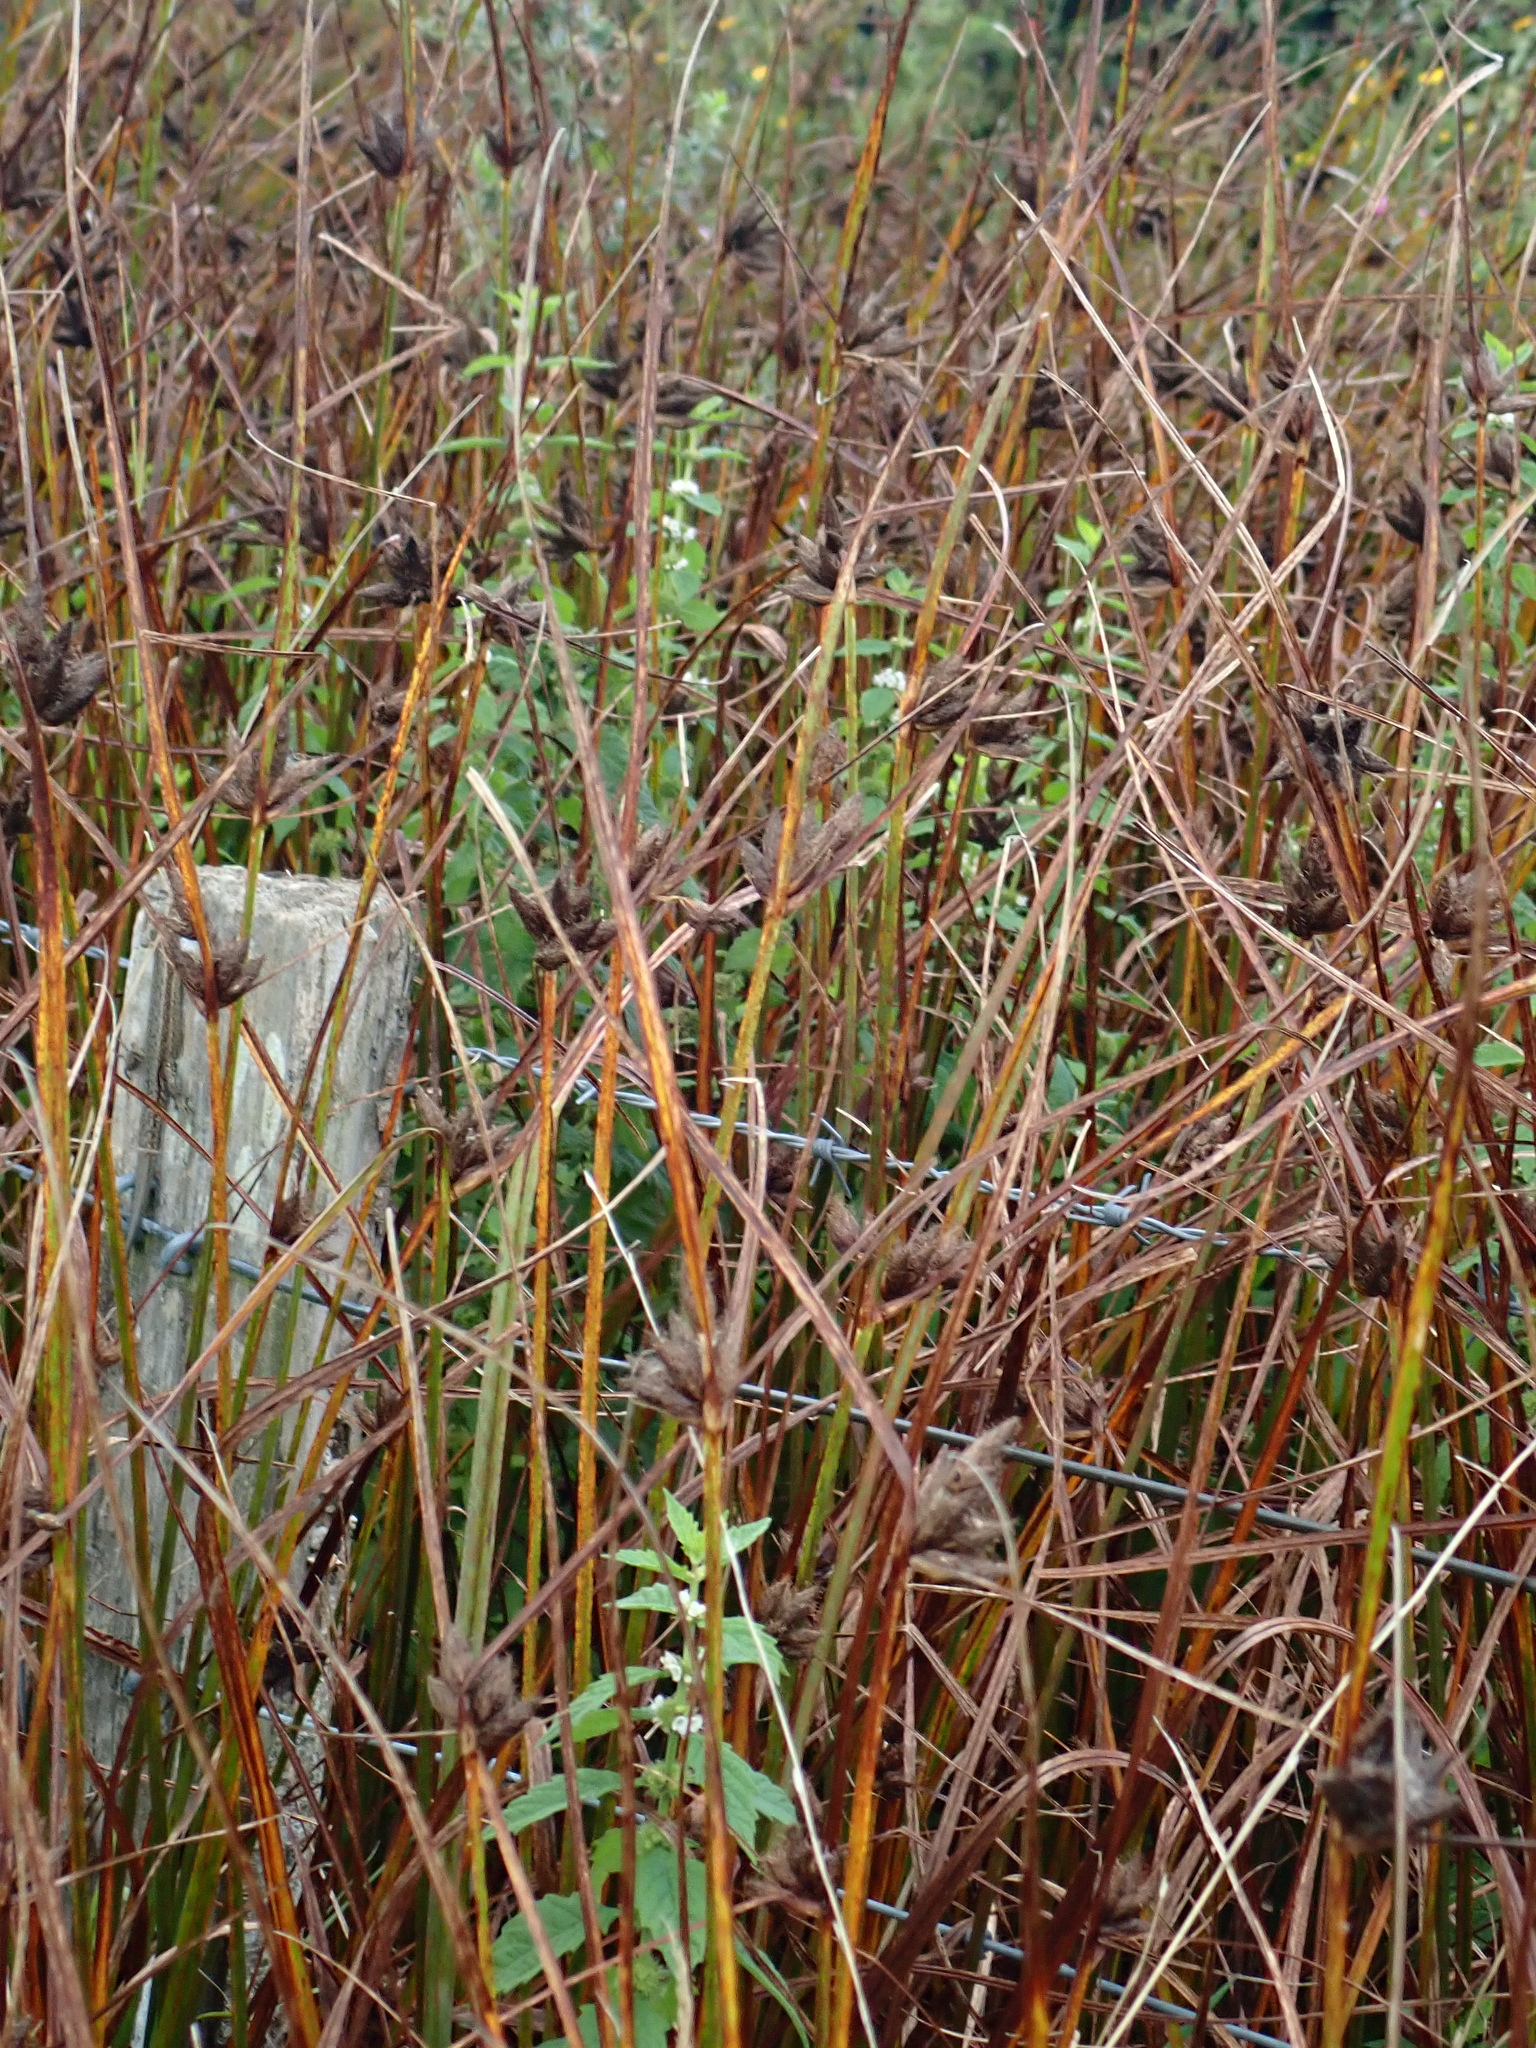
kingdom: Plantae
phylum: Tracheophyta
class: Liliopsida
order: Poales
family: Cyperaceae
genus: Bolboschoenus
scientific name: Bolboschoenus maritimus
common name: Sea club-rush
